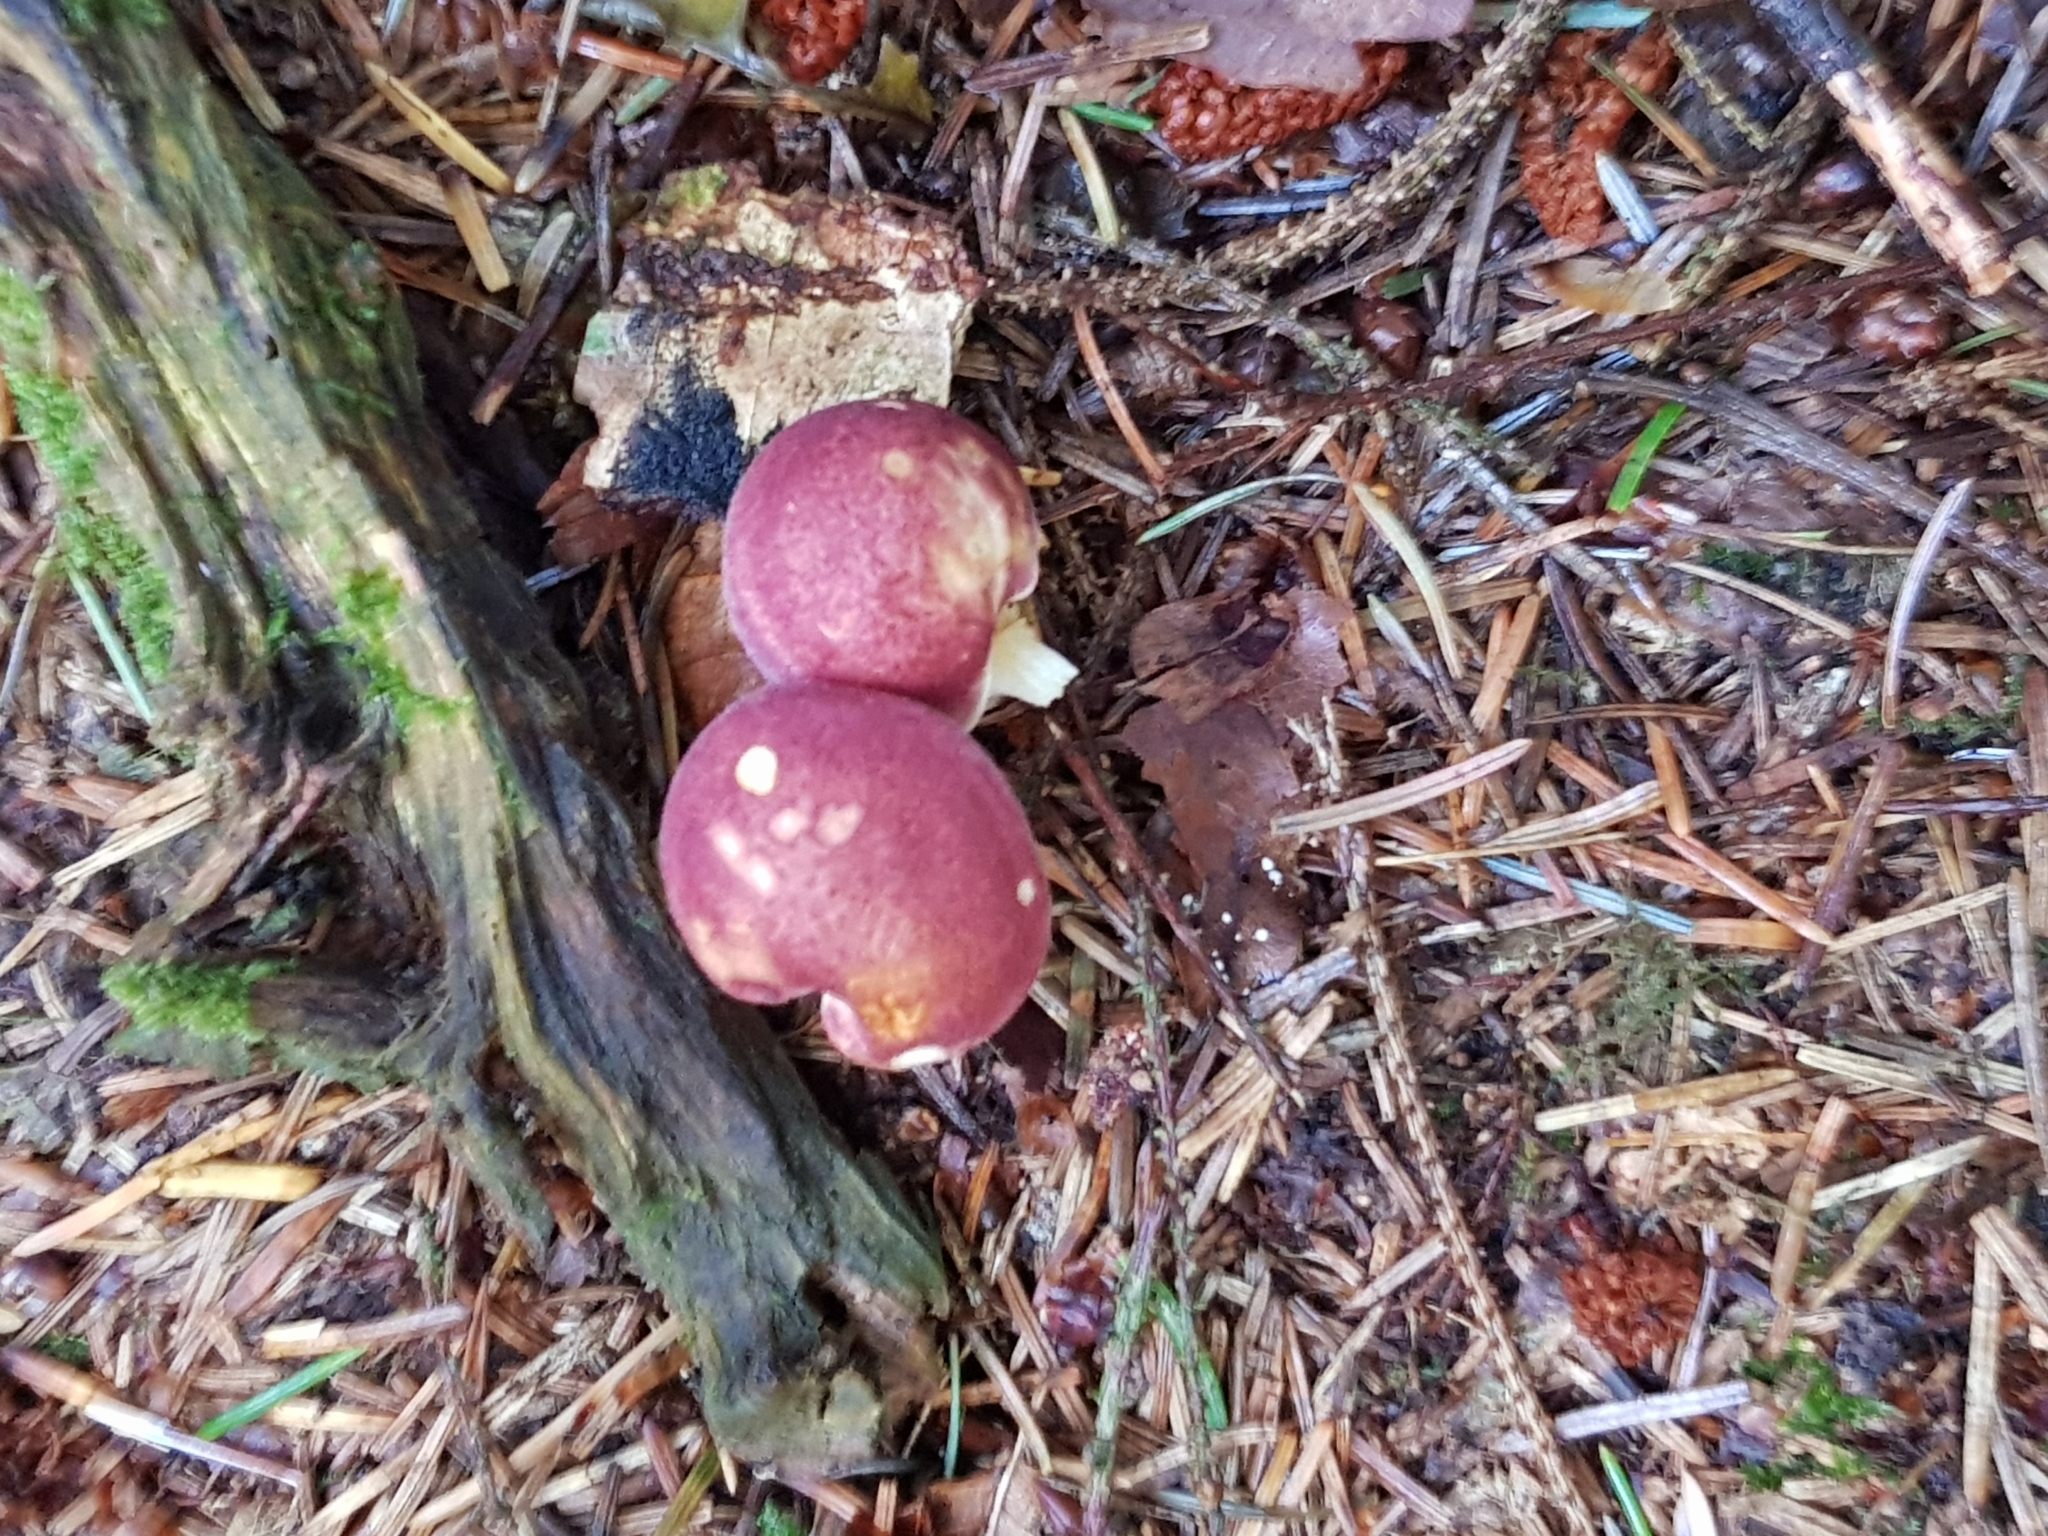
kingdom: Fungi
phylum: Basidiomycota
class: Agaricomycetes
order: Agaricales
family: Tricholomataceae
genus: Tricholomopsis
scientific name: Tricholomopsis rutilans
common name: Plums and custard
